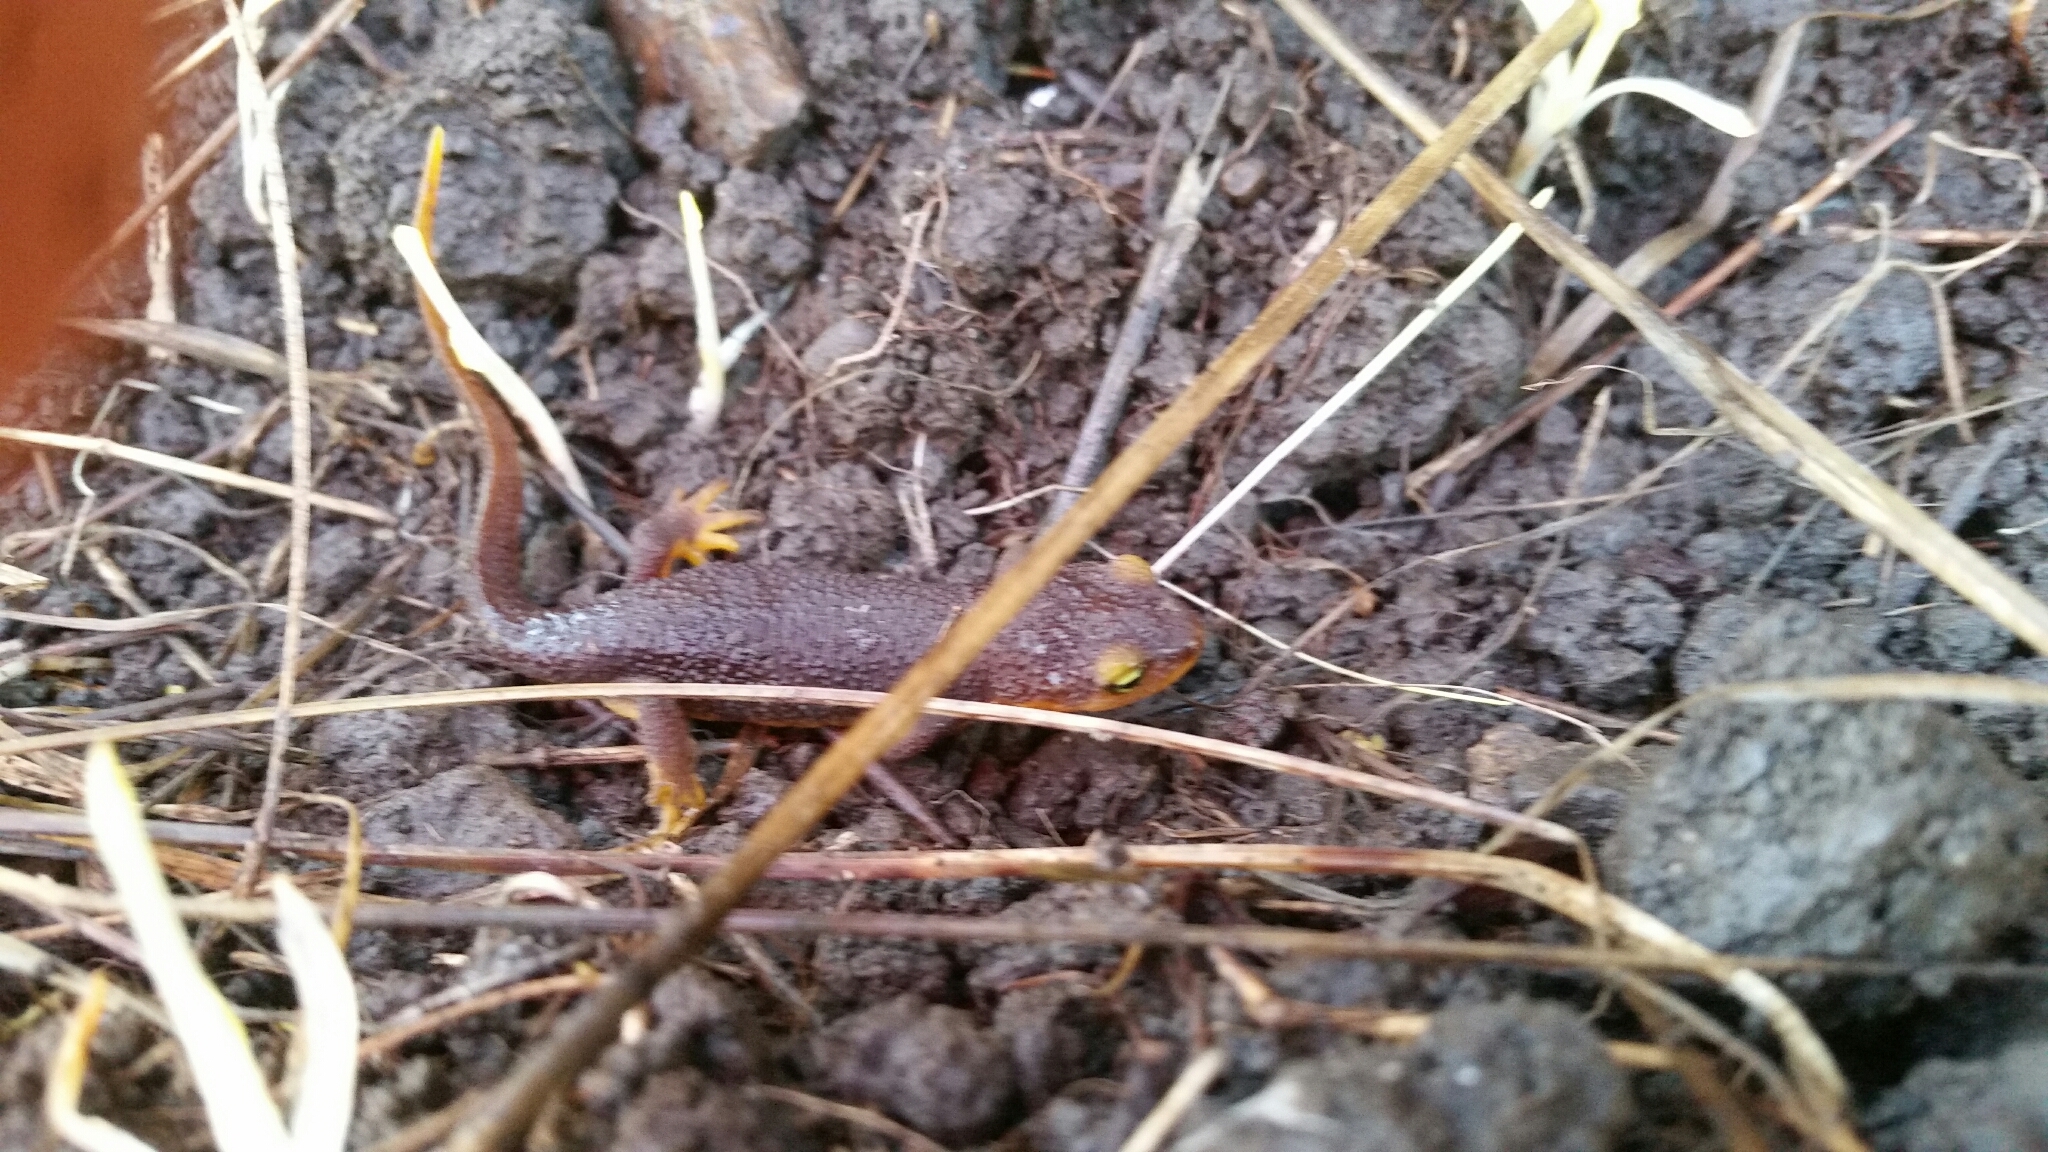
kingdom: Animalia
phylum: Chordata
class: Amphibia
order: Caudata
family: Salamandridae
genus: Taricha
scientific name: Taricha torosa
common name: California newt
